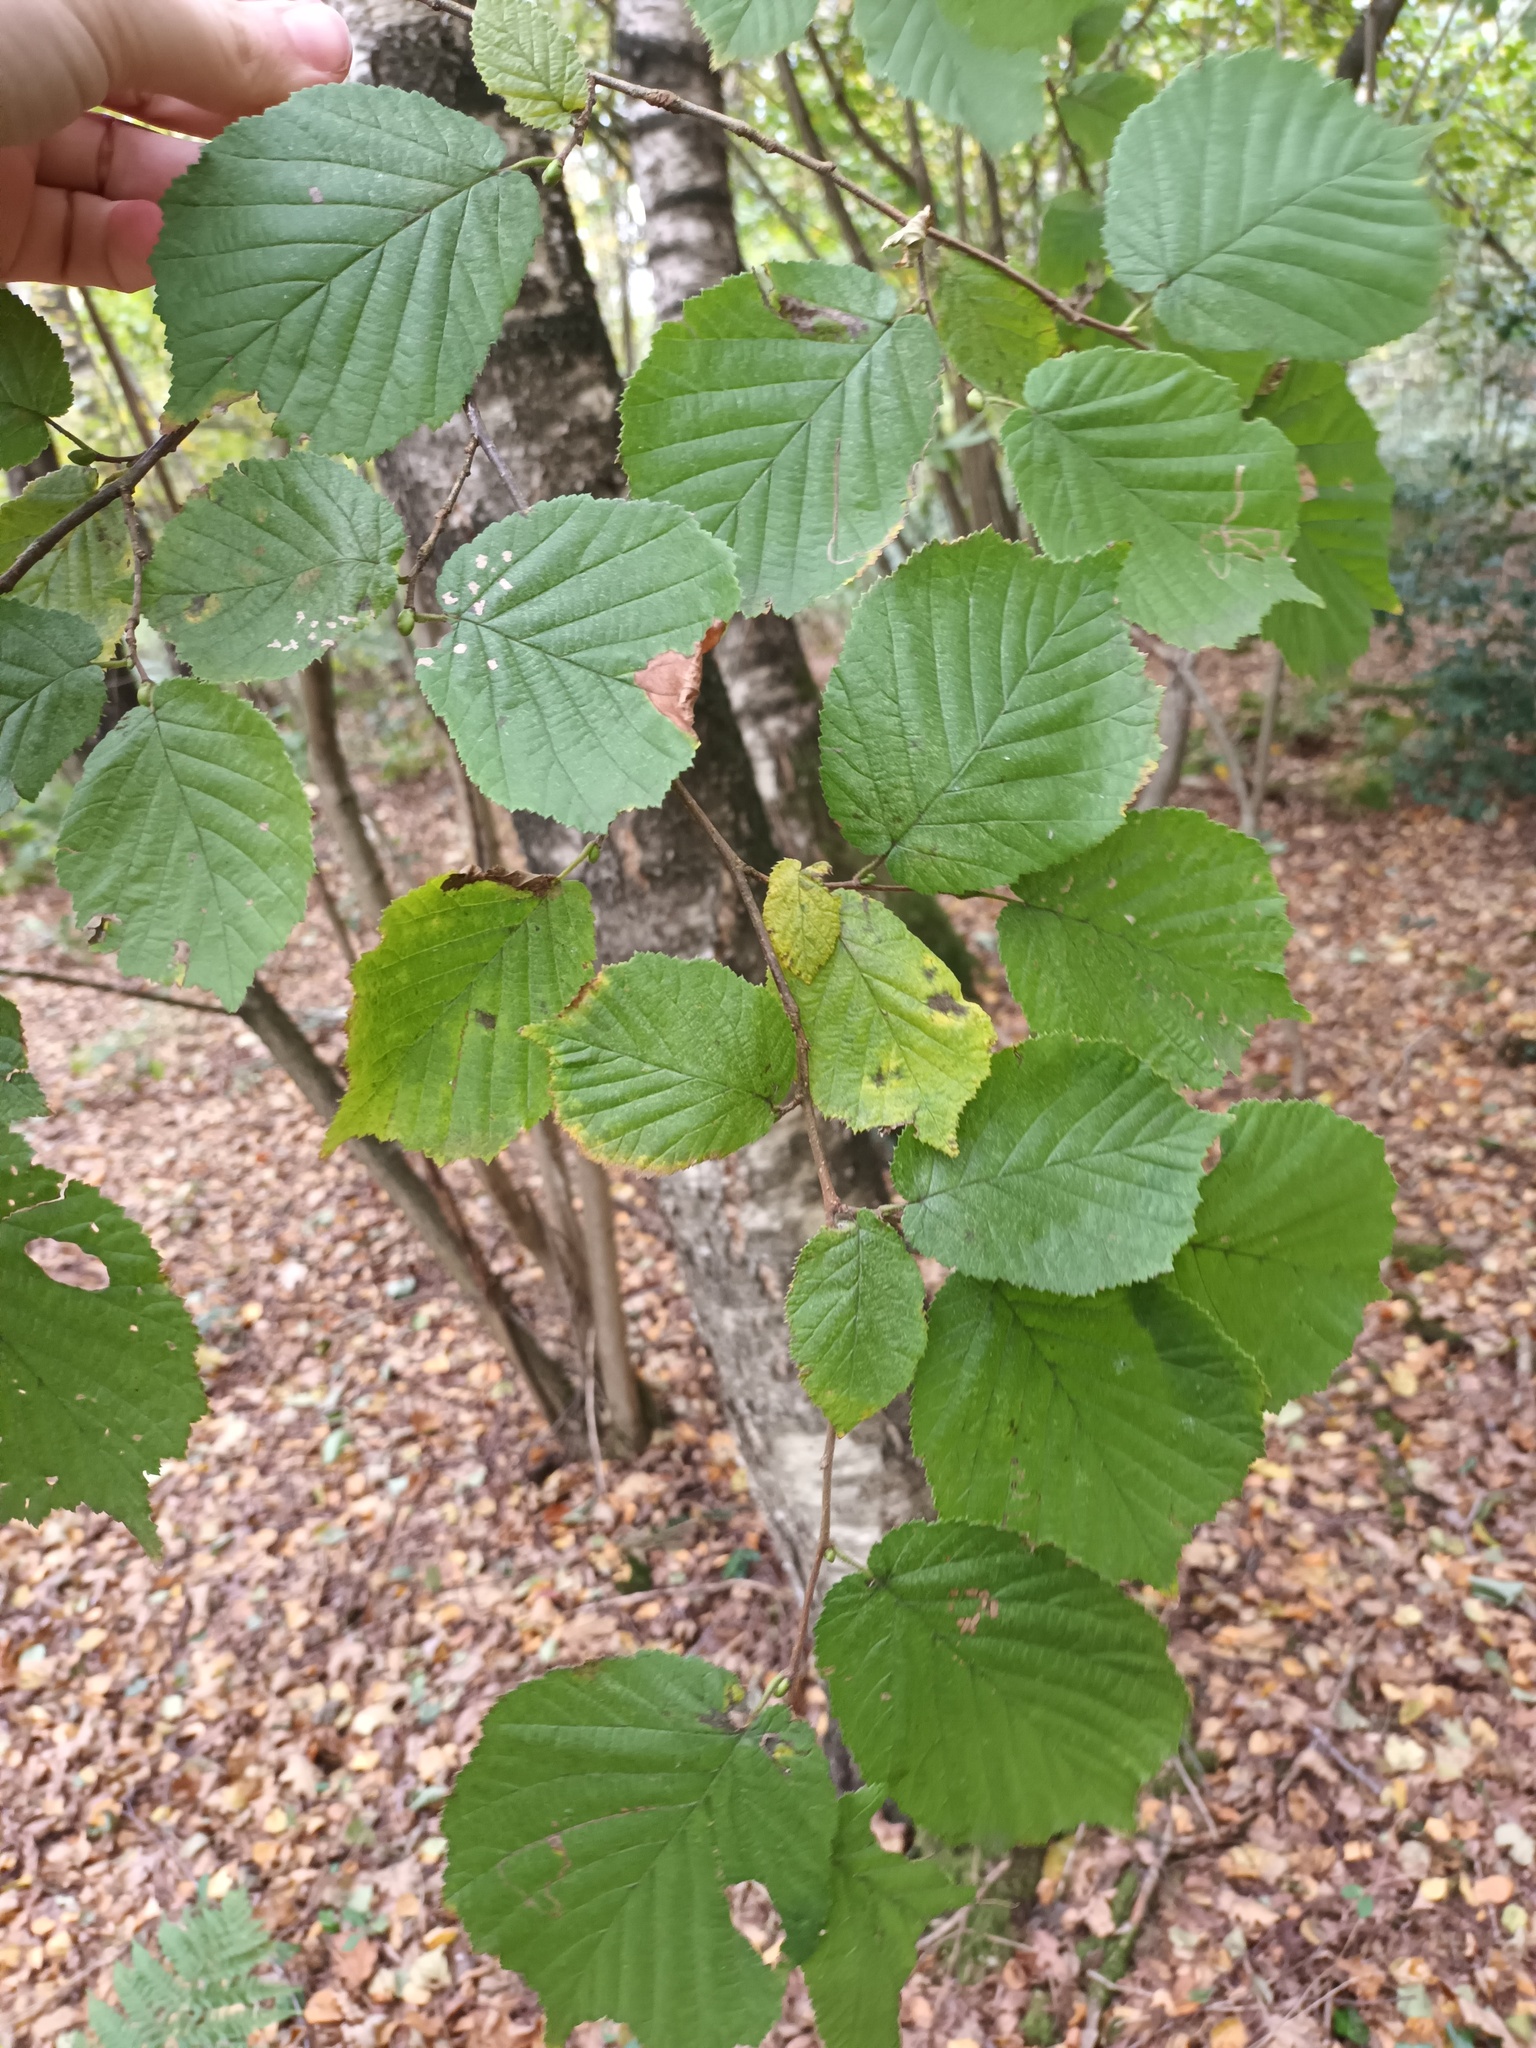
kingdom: Plantae
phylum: Tracheophyta
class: Magnoliopsida
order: Fagales
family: Betulaceae
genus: Corylus
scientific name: Corylus avellana
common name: European hazel
